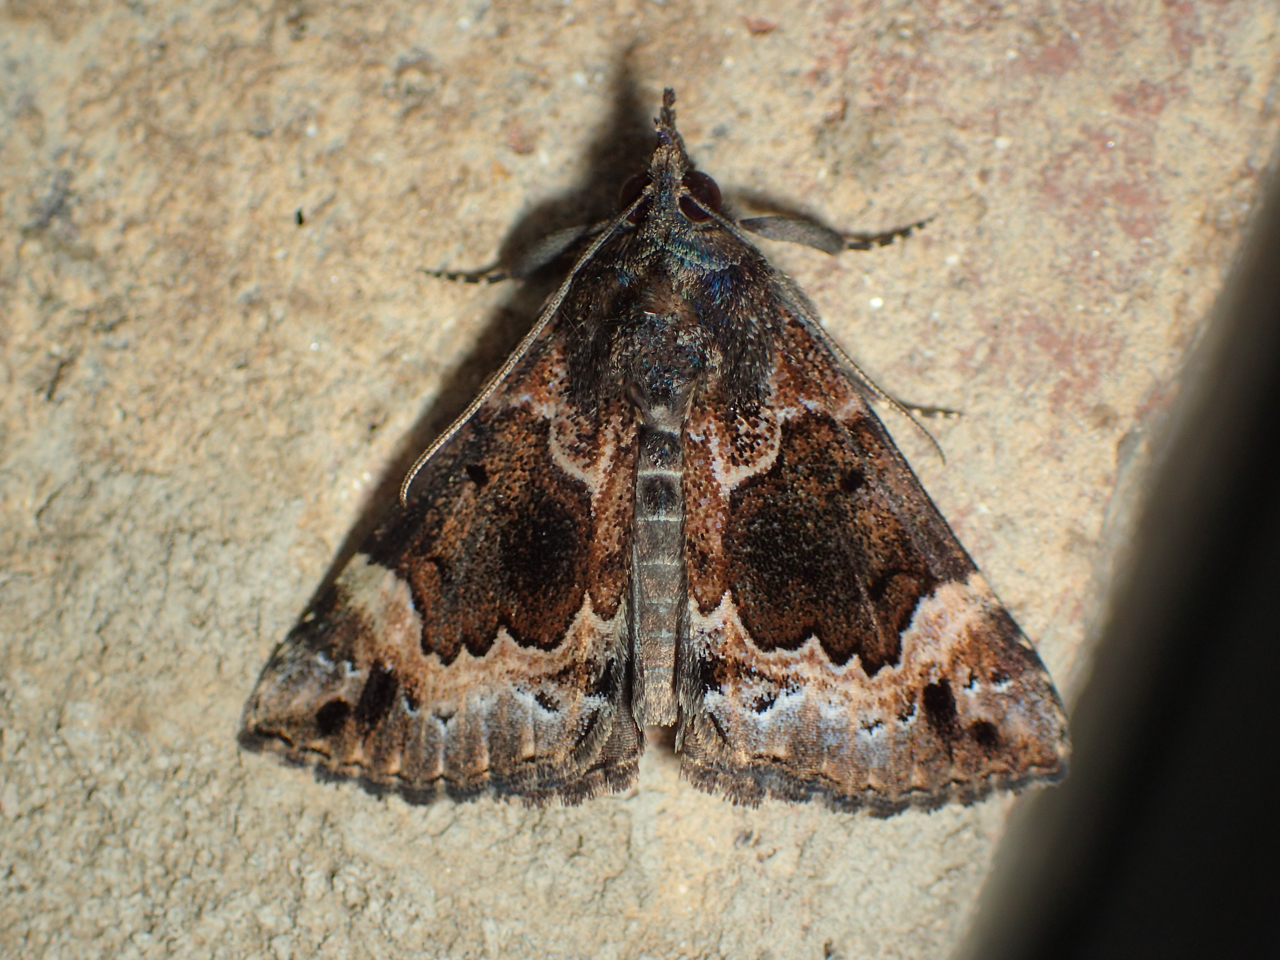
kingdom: Animalia
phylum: Arthropoda
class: Insecta
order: Lepidoptera
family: Erebidae
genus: Hypena
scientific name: Hypena palparia
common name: Mottled bomolocha moth
